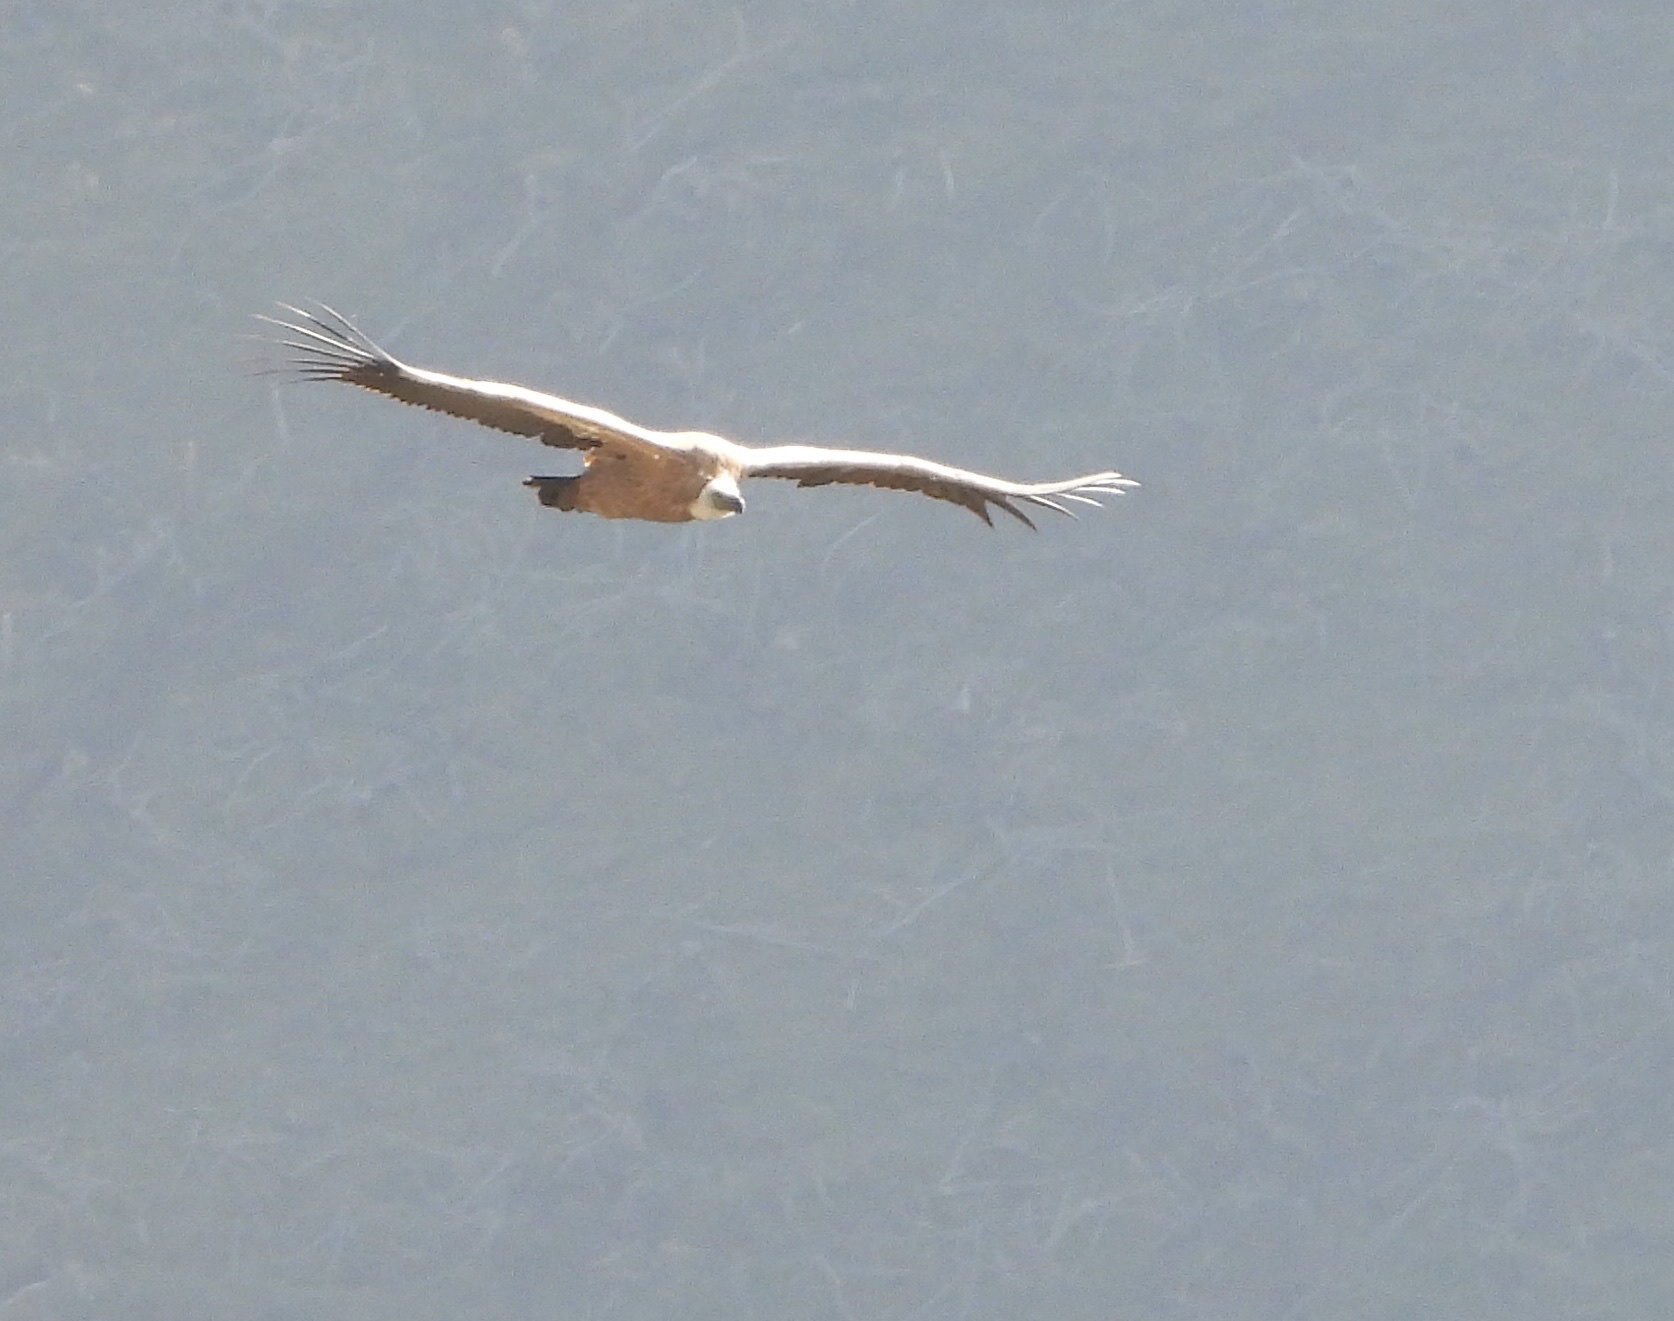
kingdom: Animalia
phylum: Chordata
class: Aves
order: Accipitriformes
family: Accipitridae
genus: Gyps
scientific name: Gyps fulvus
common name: Griffon vulture
